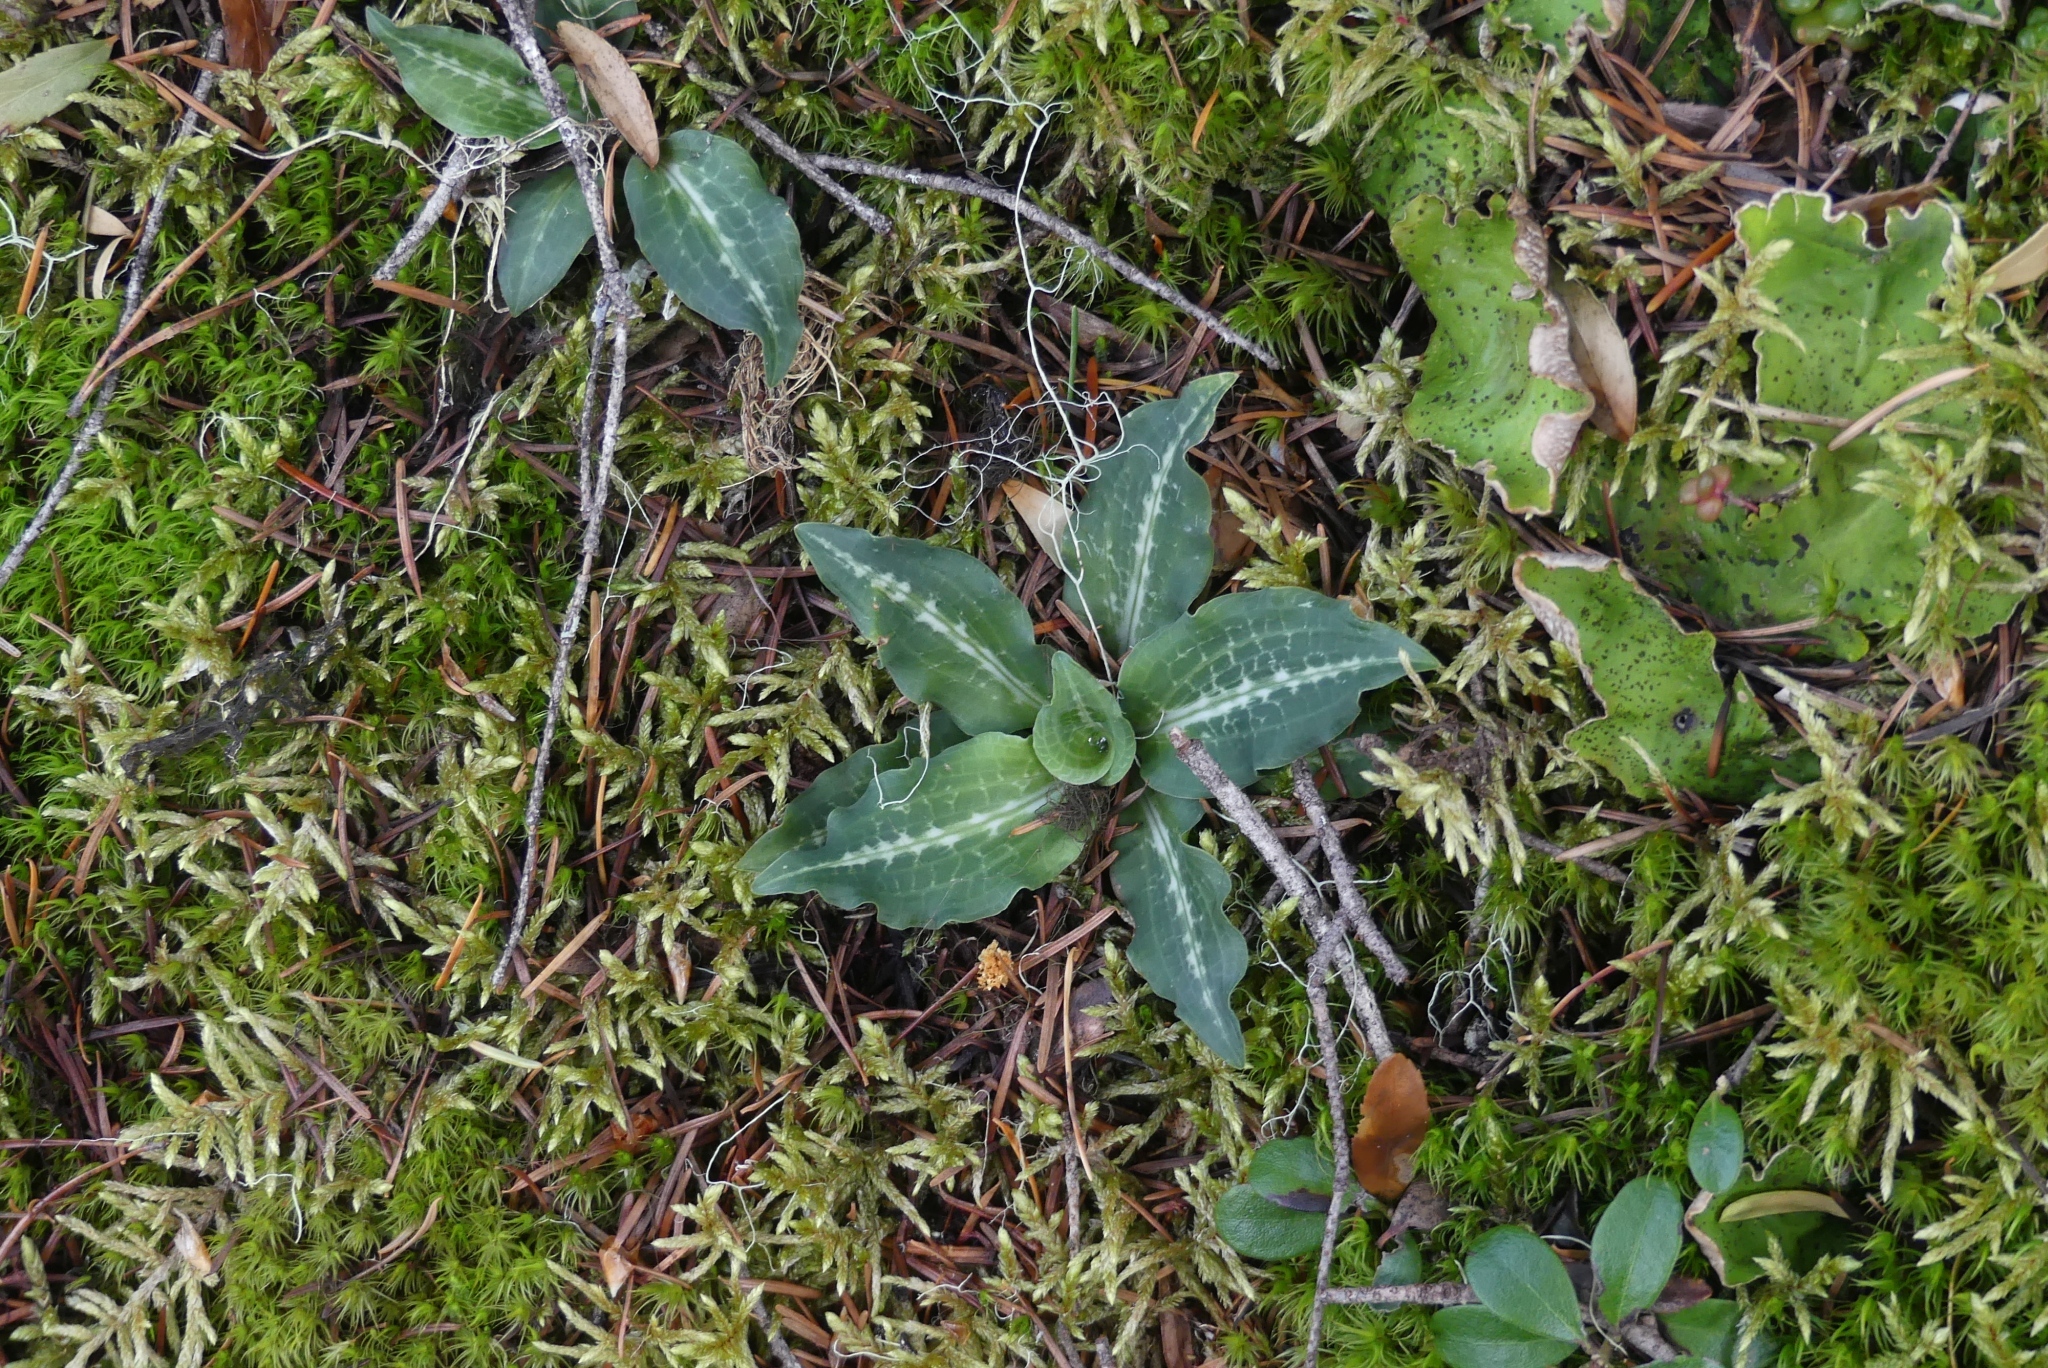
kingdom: Plantae
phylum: Tracheophyta
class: Liliopsida
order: Asparagales
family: Orchidaceae
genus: Goodyera
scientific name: Goodyera oblongifolia
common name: Giant rattlesnake-plantain
